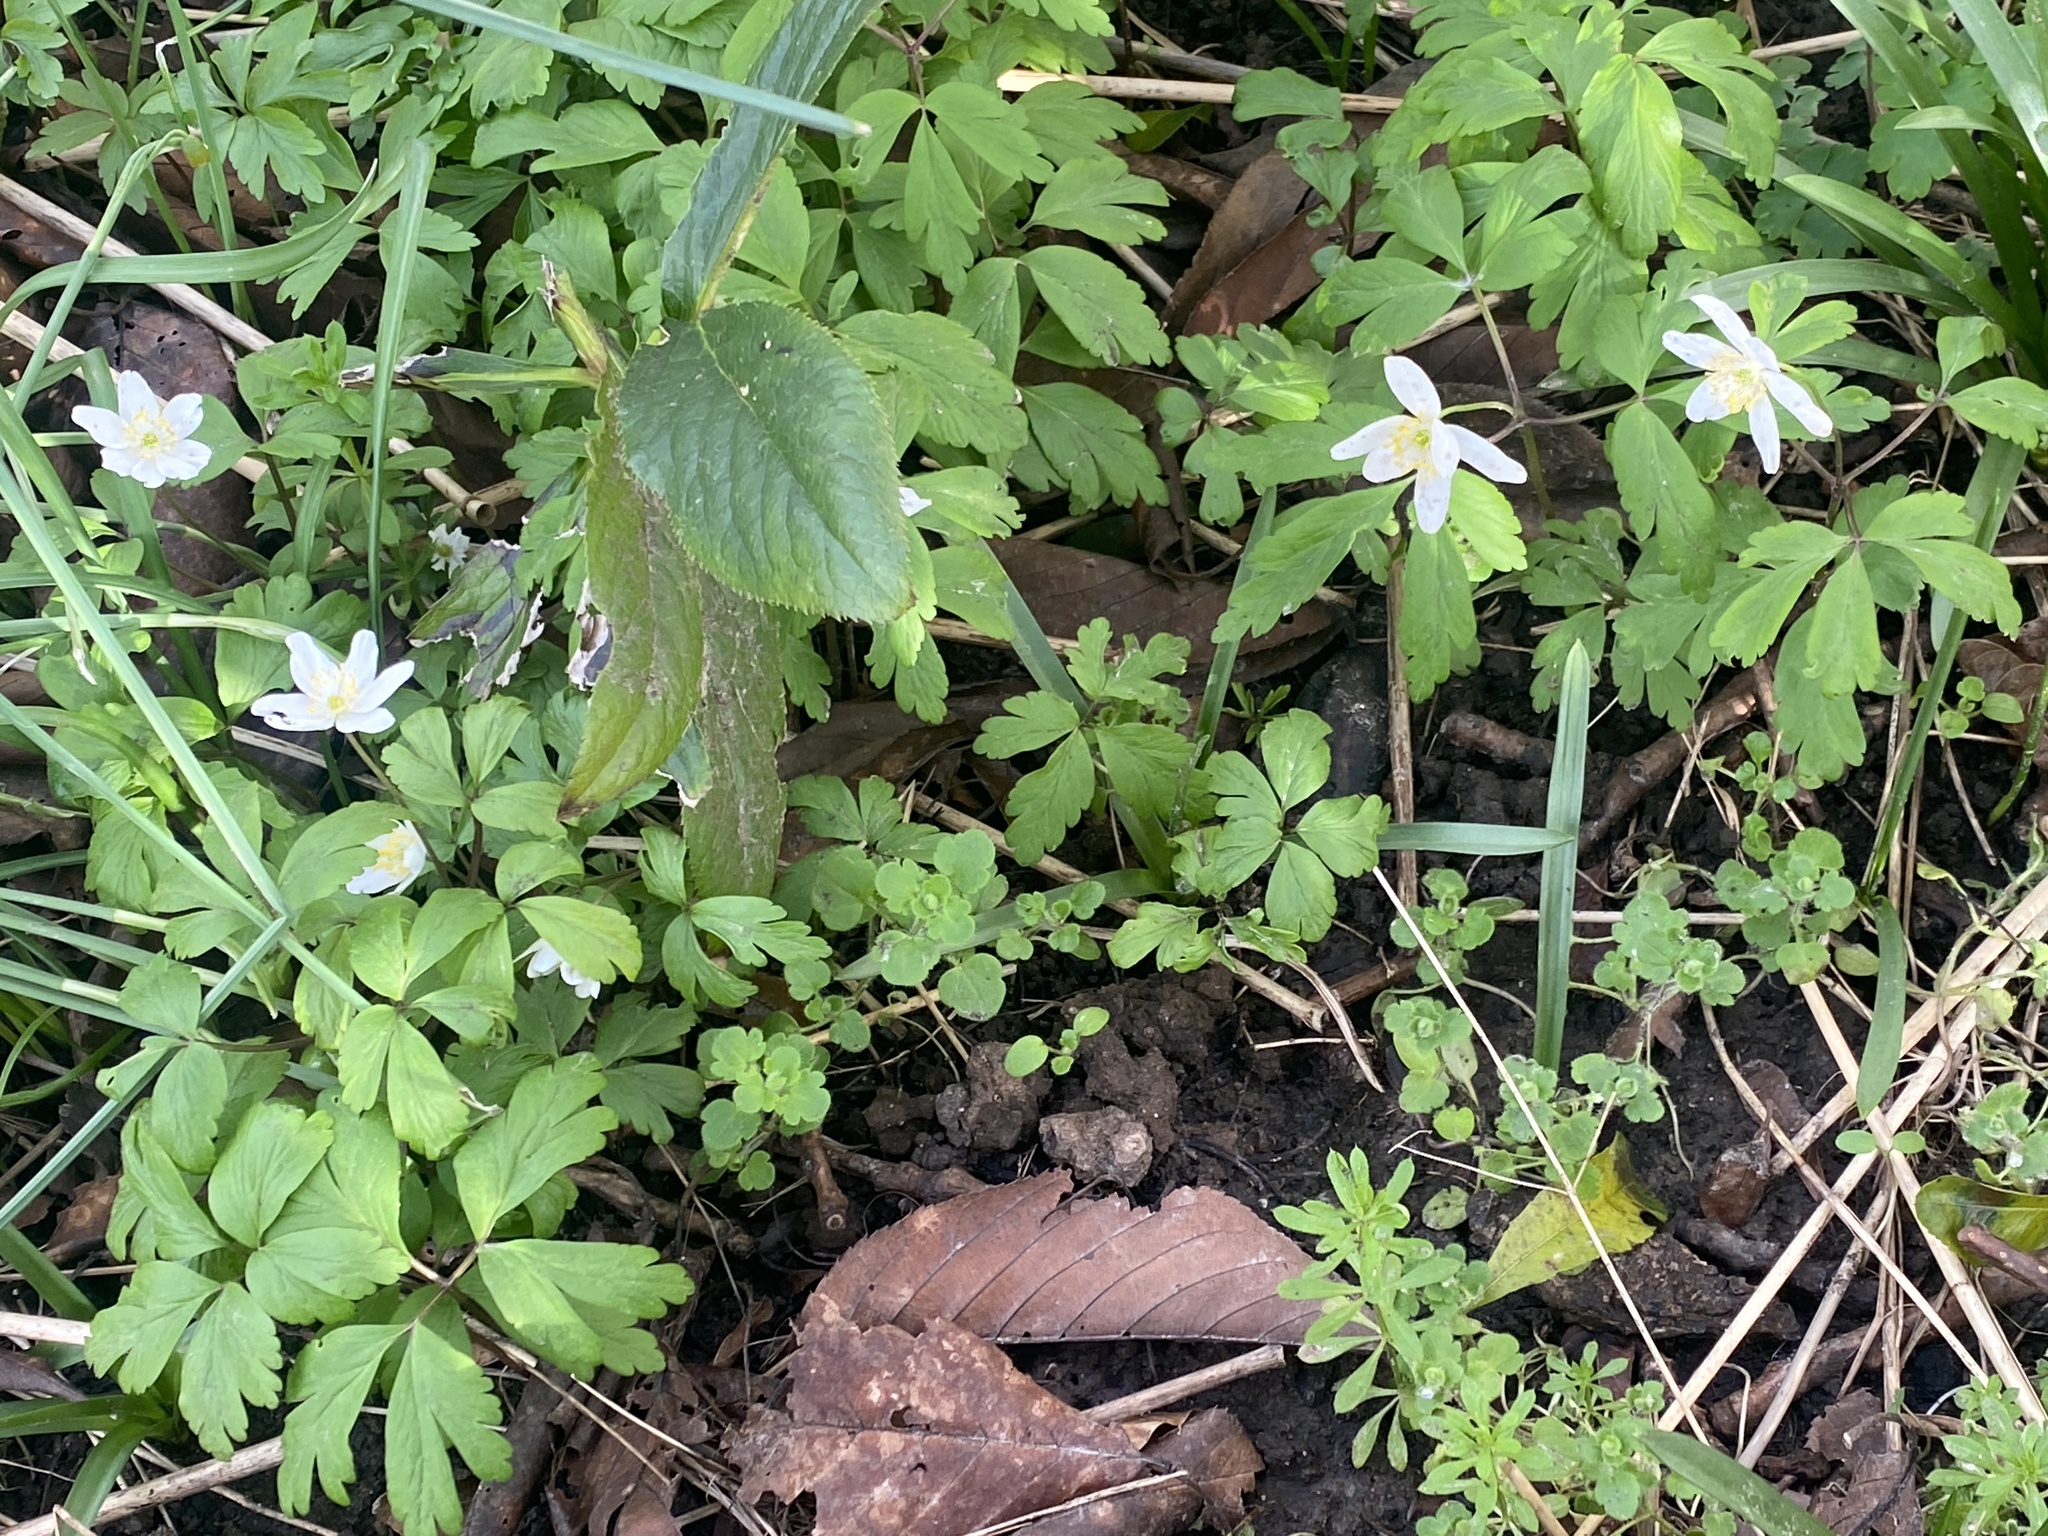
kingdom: Plantae
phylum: Tracheophyta
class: Magnoliopsida
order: Ranunculales
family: Ranunculaceae
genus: Anemone
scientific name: Anemone nemorosa
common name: Wood anemone
